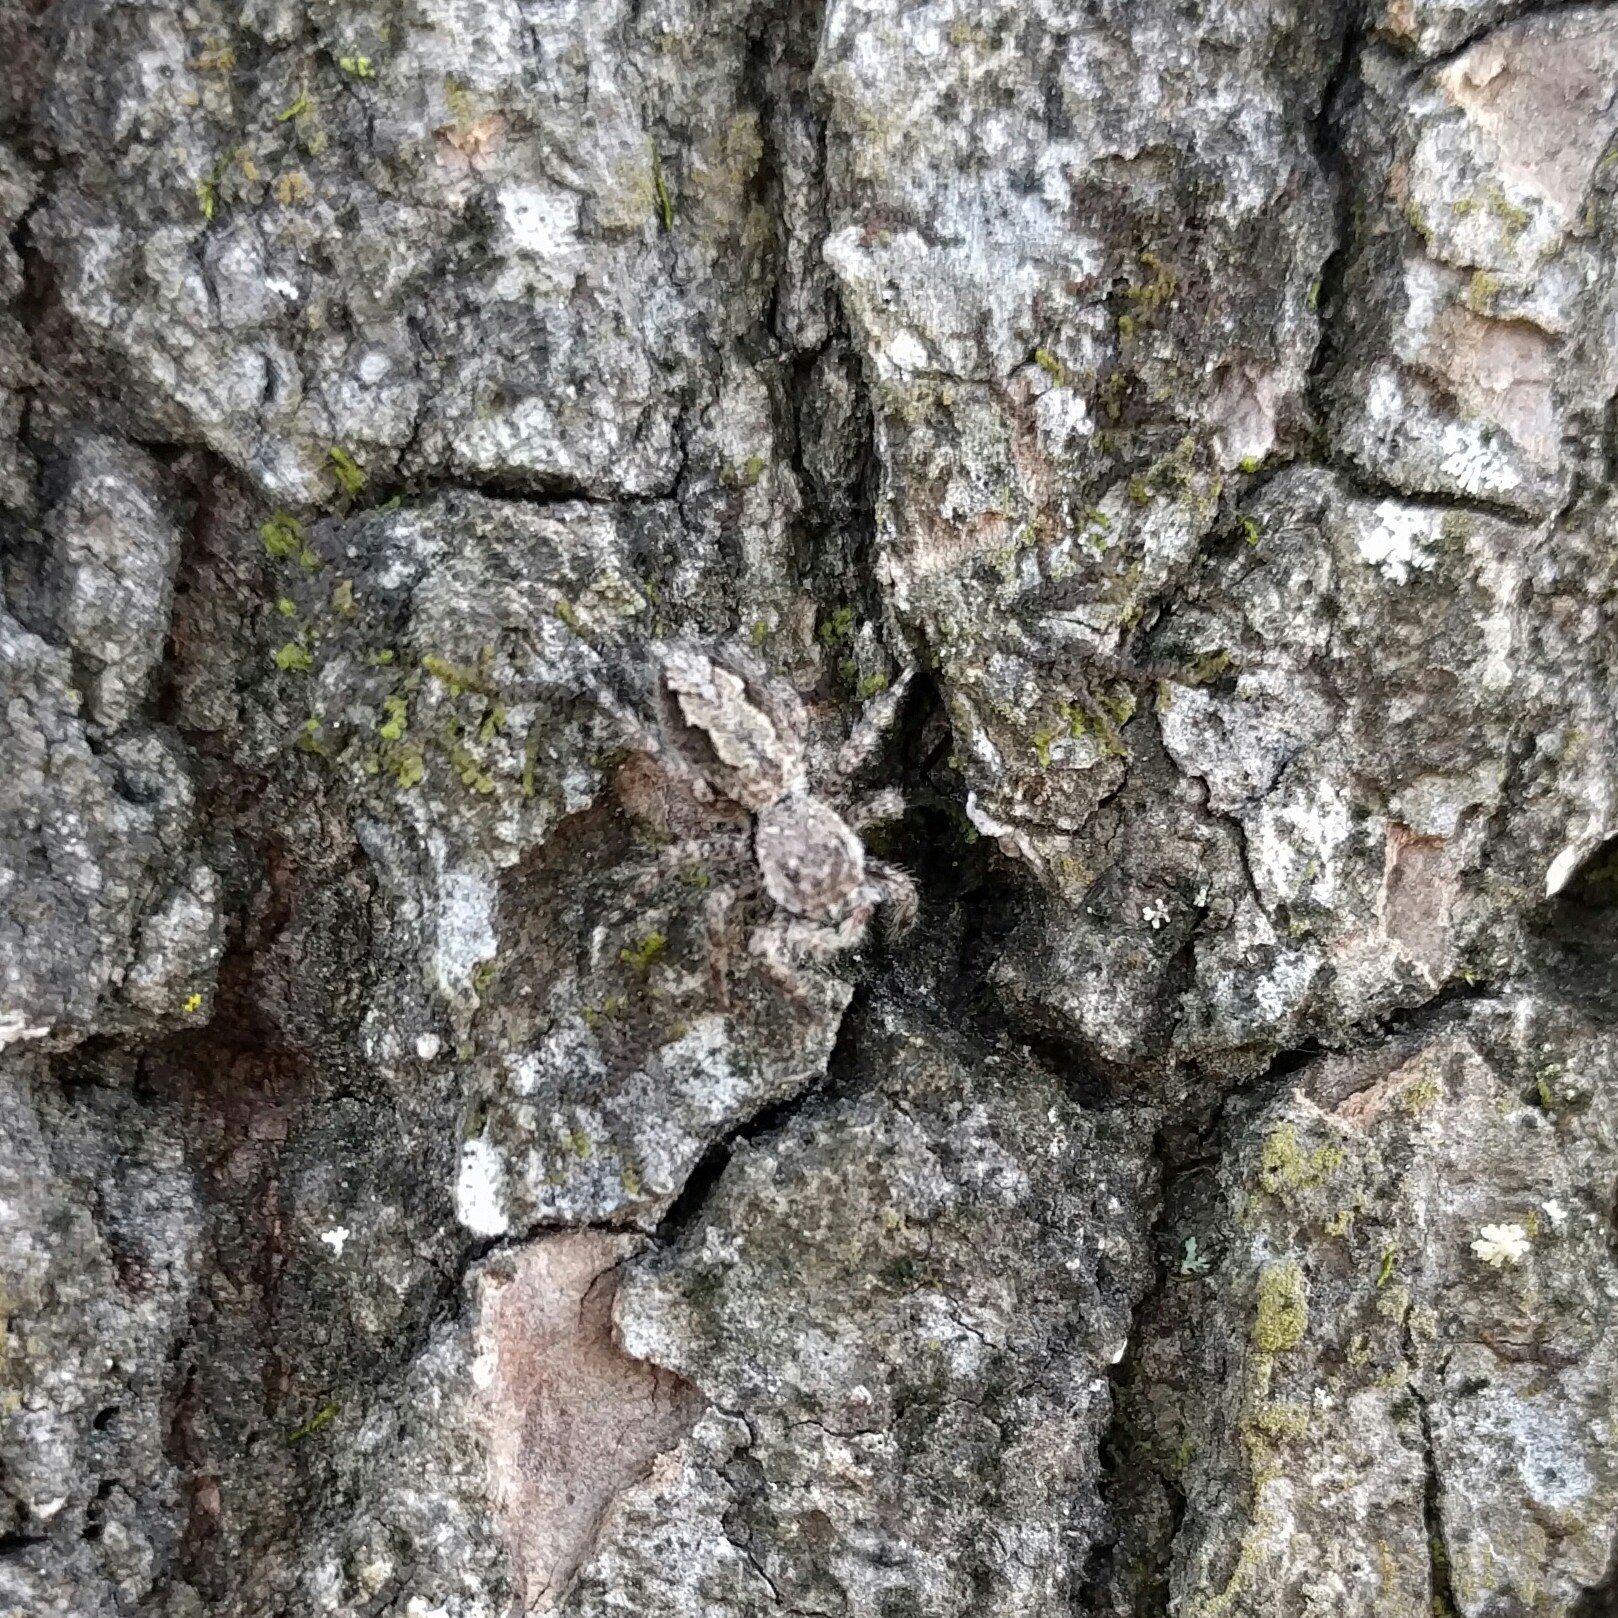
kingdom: Animalia
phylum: Arthropoda
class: Arachnida
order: Araneae
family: Salticidae
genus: Platycryptus
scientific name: Platycryptus undatus
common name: Tan jumping spider
